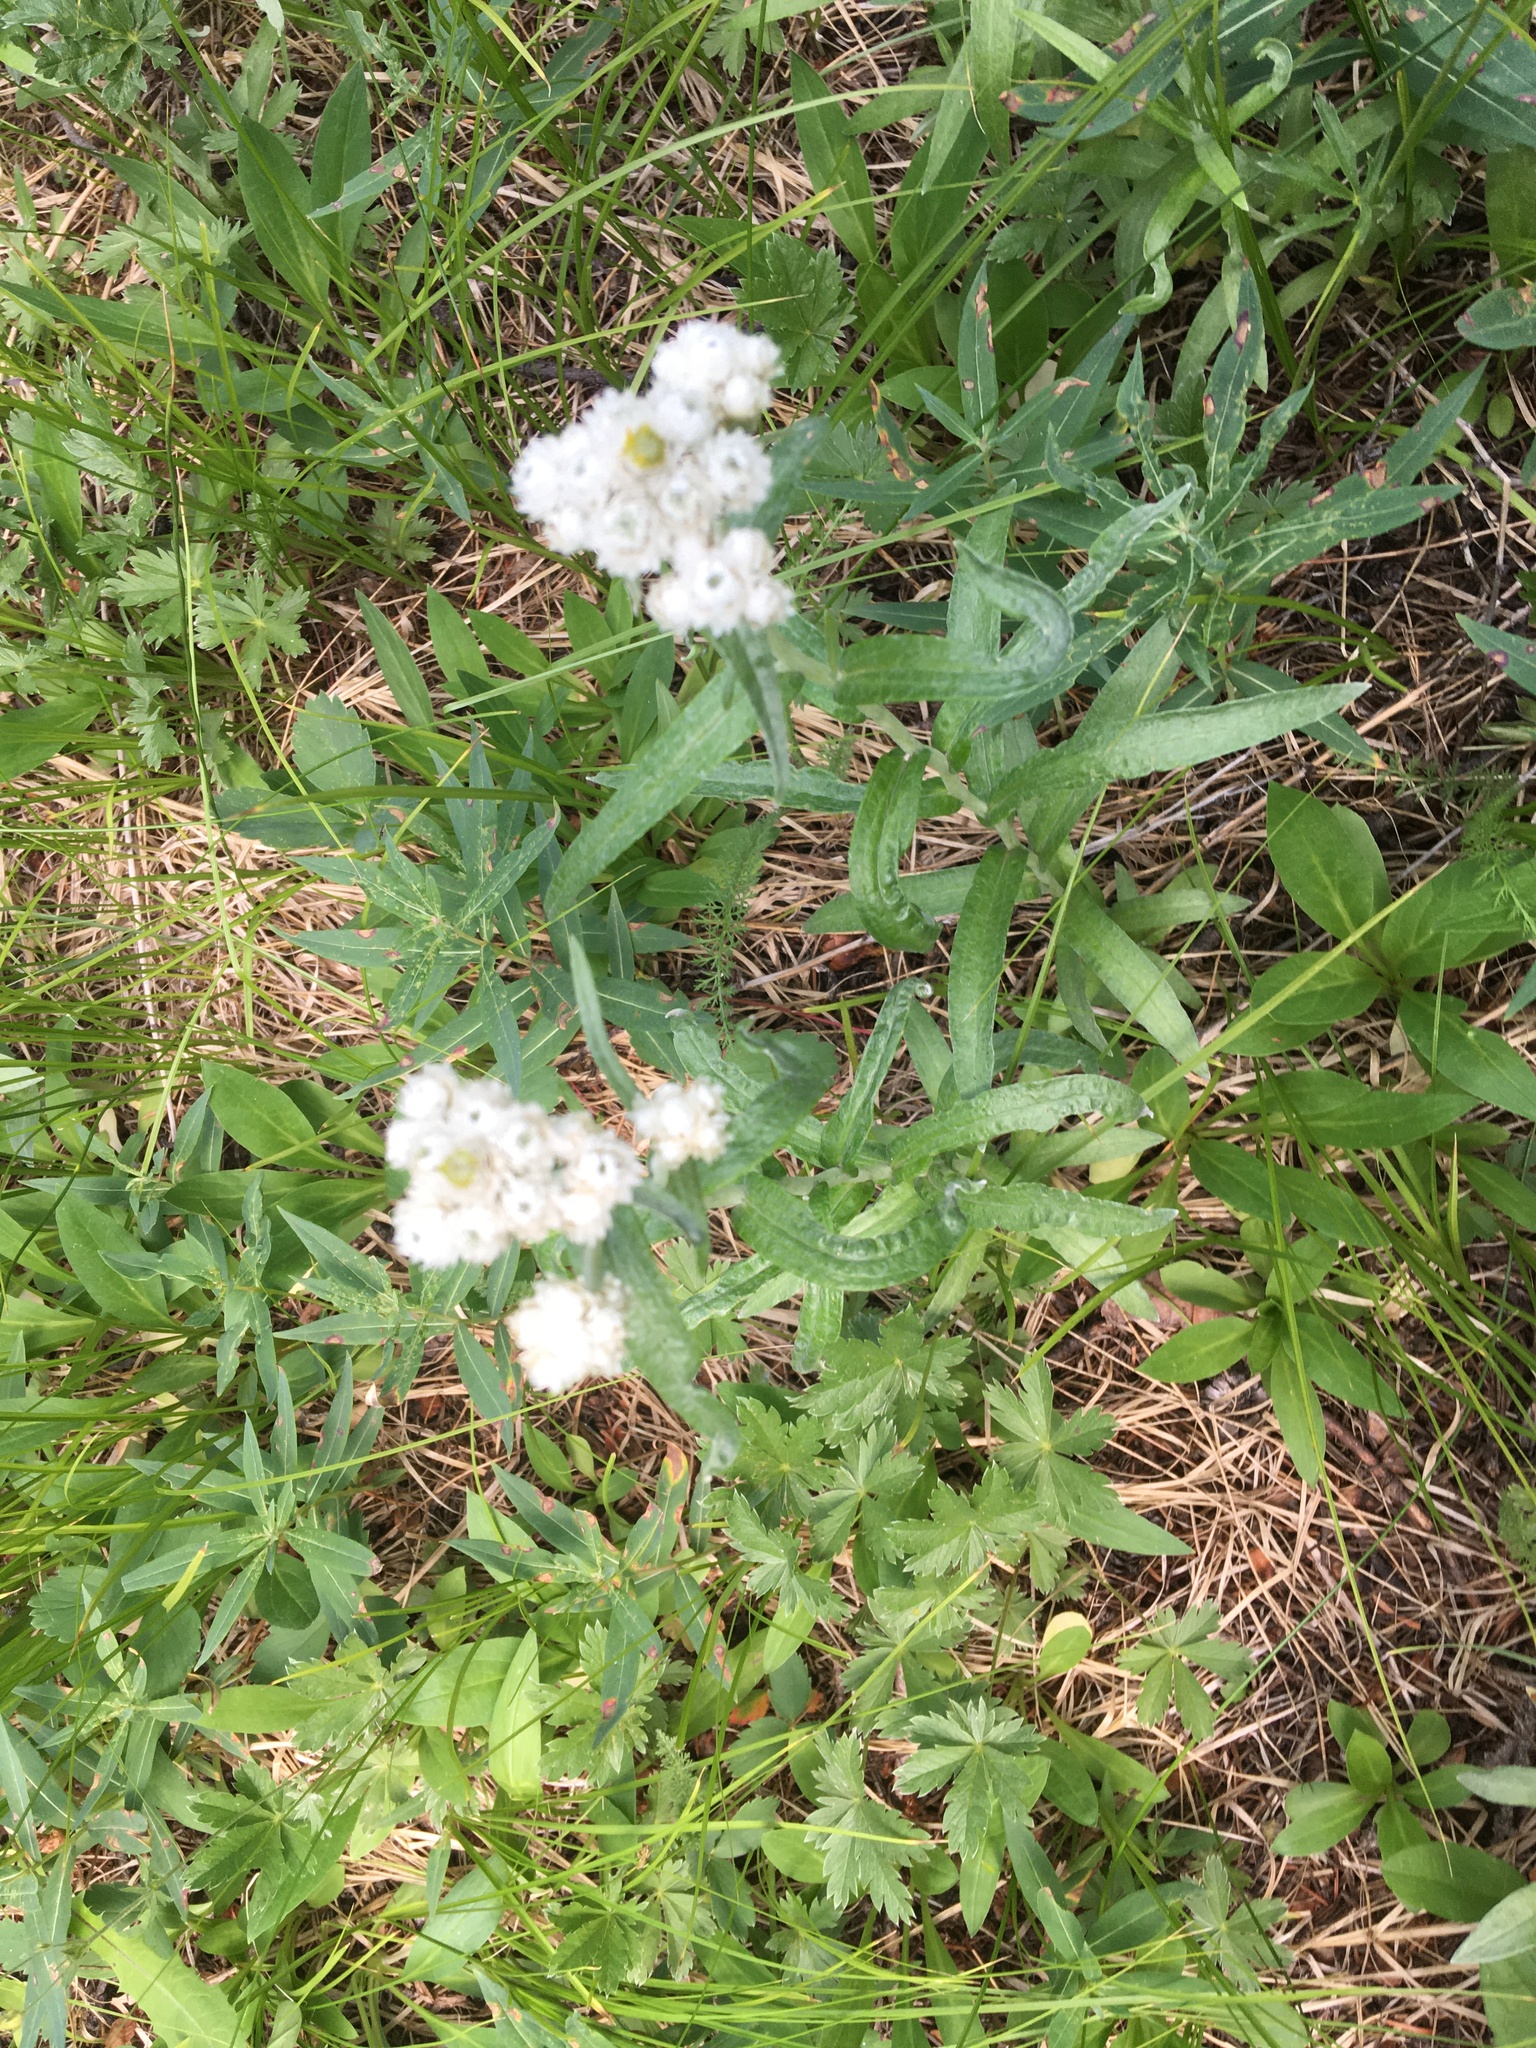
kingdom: Plantae
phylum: Tracheophyta
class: Magnoliopsida
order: Asterales
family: Asteraceae
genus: Anaphalis
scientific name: Anaphalis margaritacea
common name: Pearly everlasting
